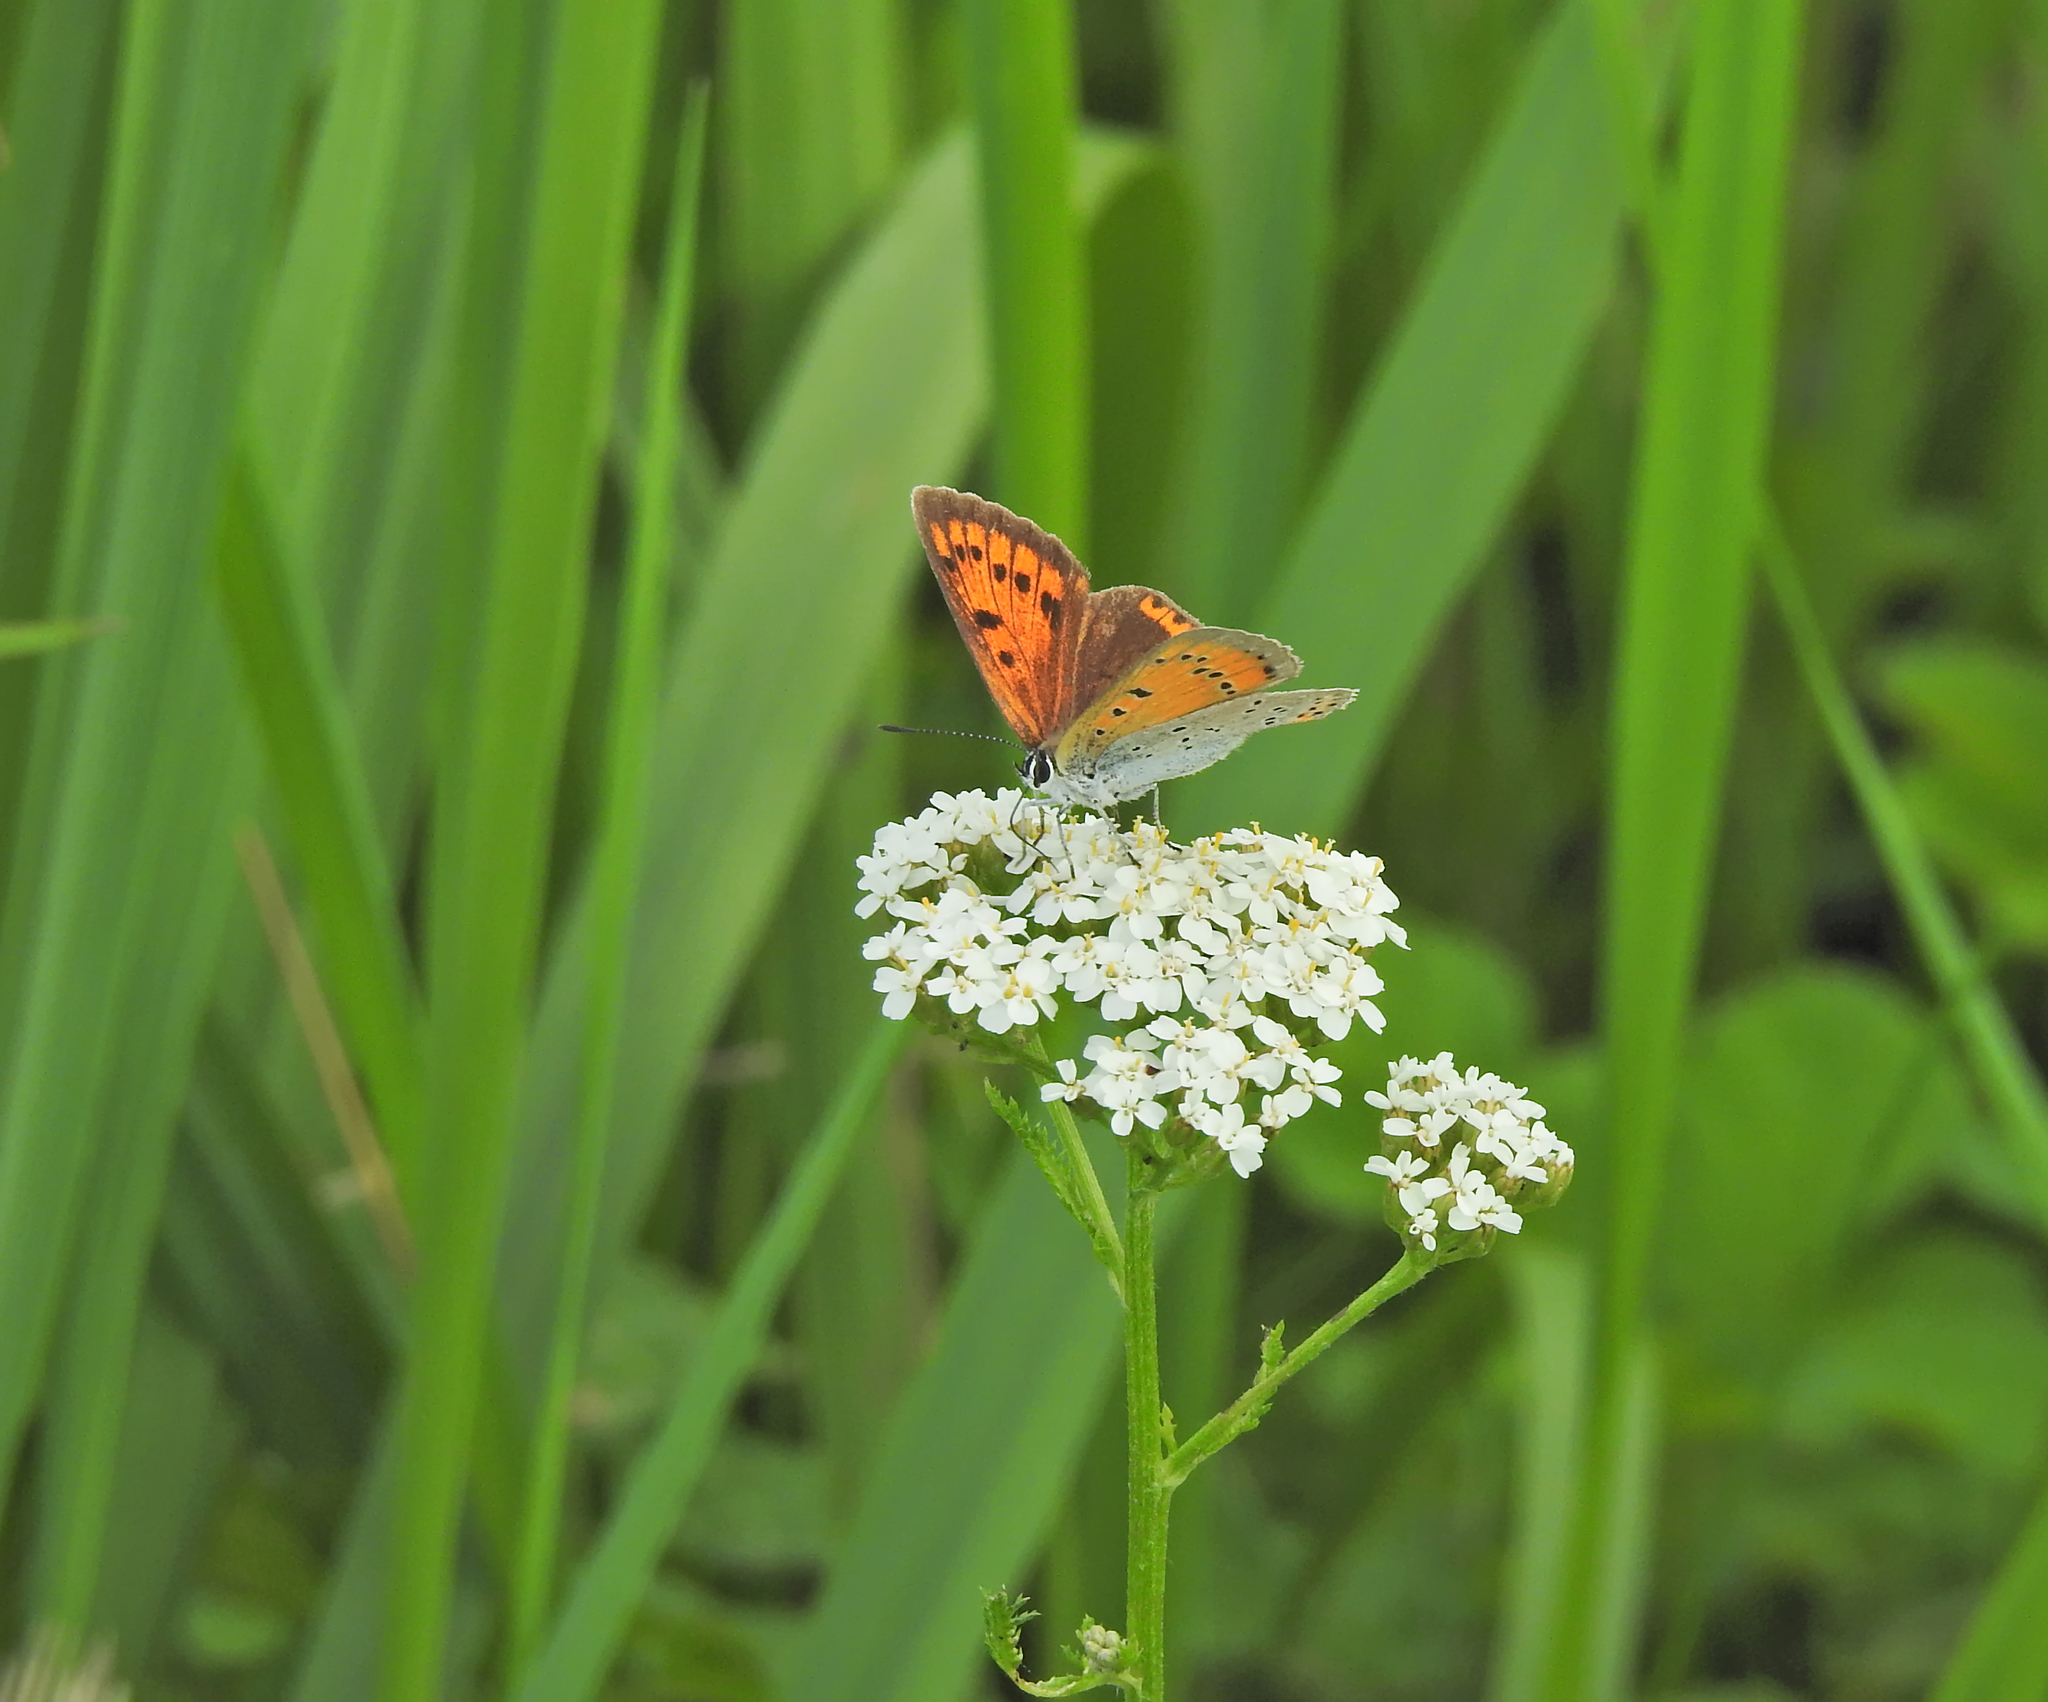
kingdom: Animalia
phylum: Arthropoda
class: Insecta
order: Lepidoptera
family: Lycaenidae
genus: Lycaena
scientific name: Lycaena dispar
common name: Large copper
